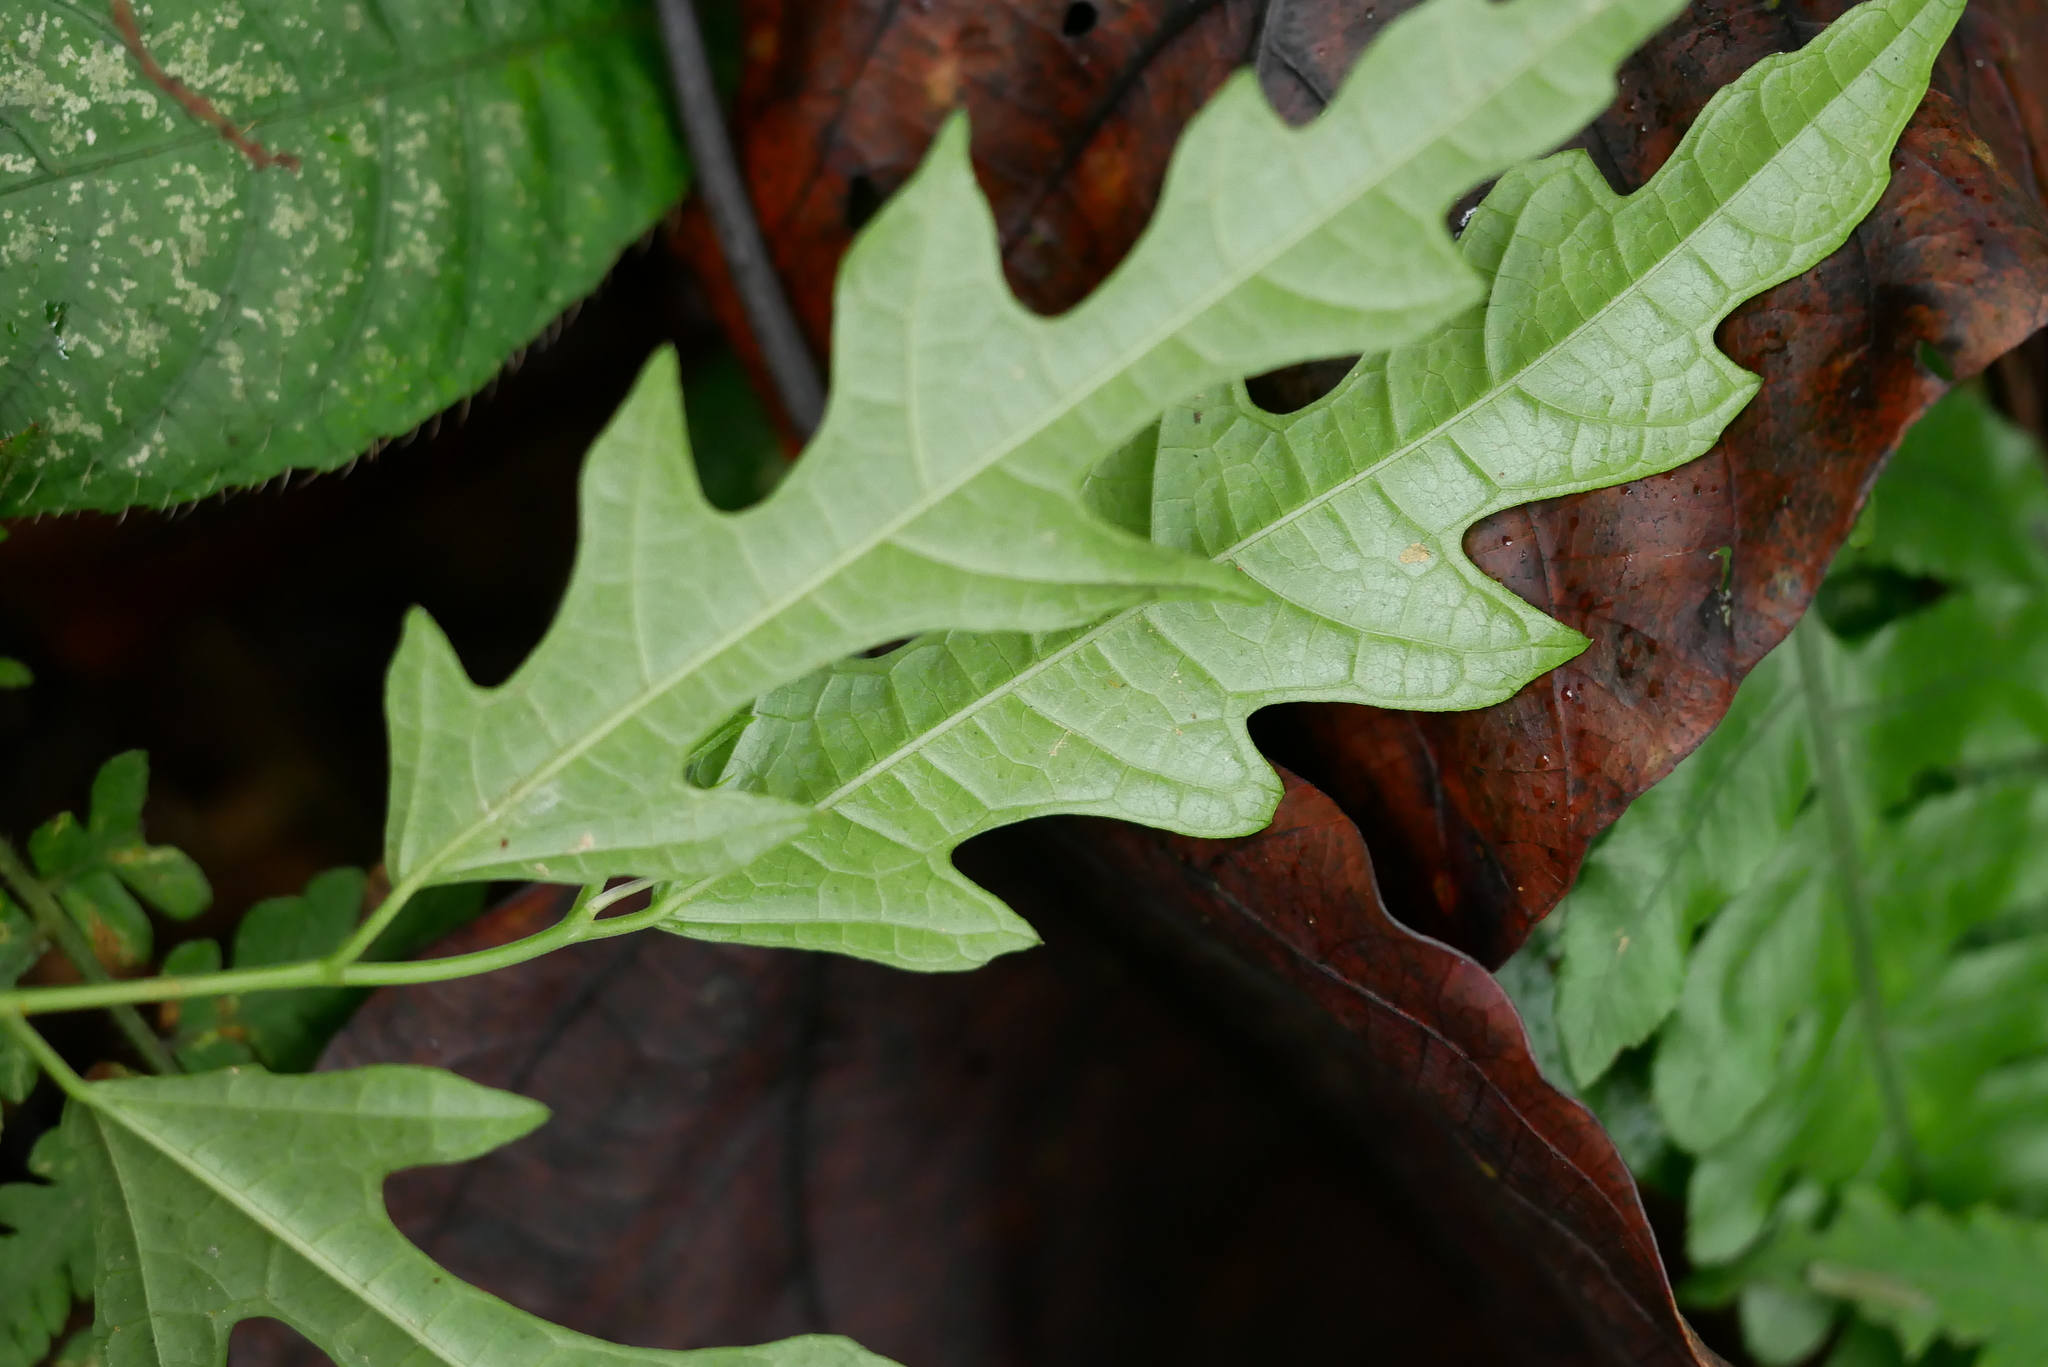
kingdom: Plantae
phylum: Tracheophyta
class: Magnoliopsida
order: Rosales
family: Moraceae
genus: Ficus
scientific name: Ficus ampelos
